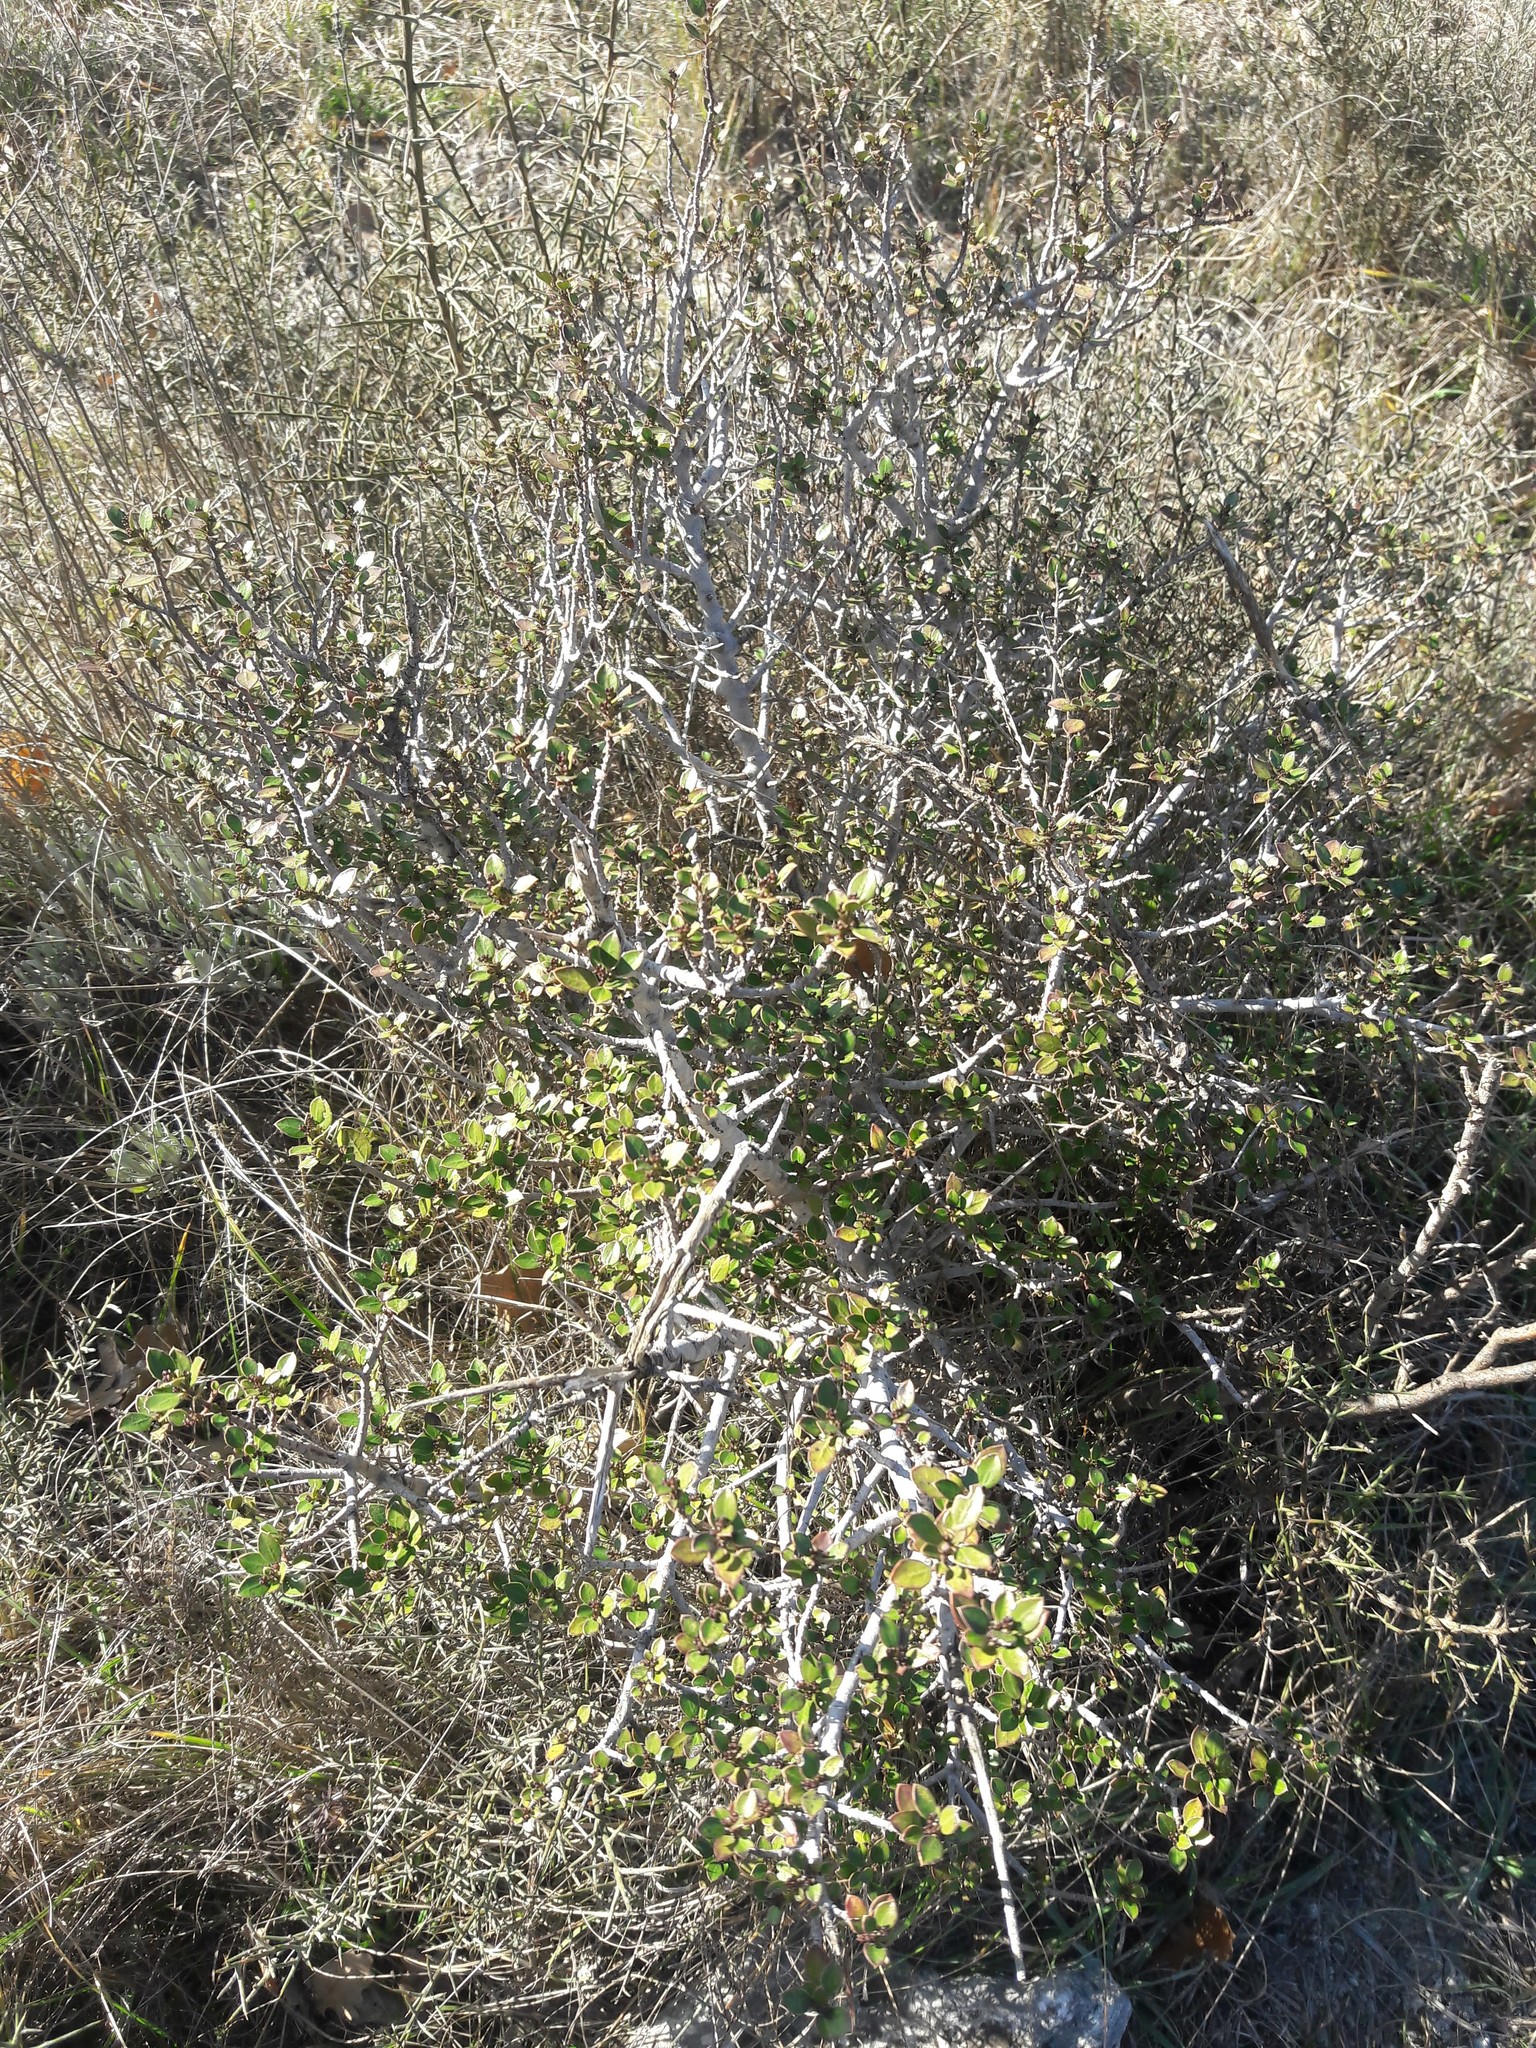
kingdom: Plantae
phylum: Tracheophyta
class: Magnoliopsida
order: Rosales
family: Rhamnaceae
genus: Rhamnus
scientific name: Rhamnus alaternus
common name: Mediterranean buckthorn
